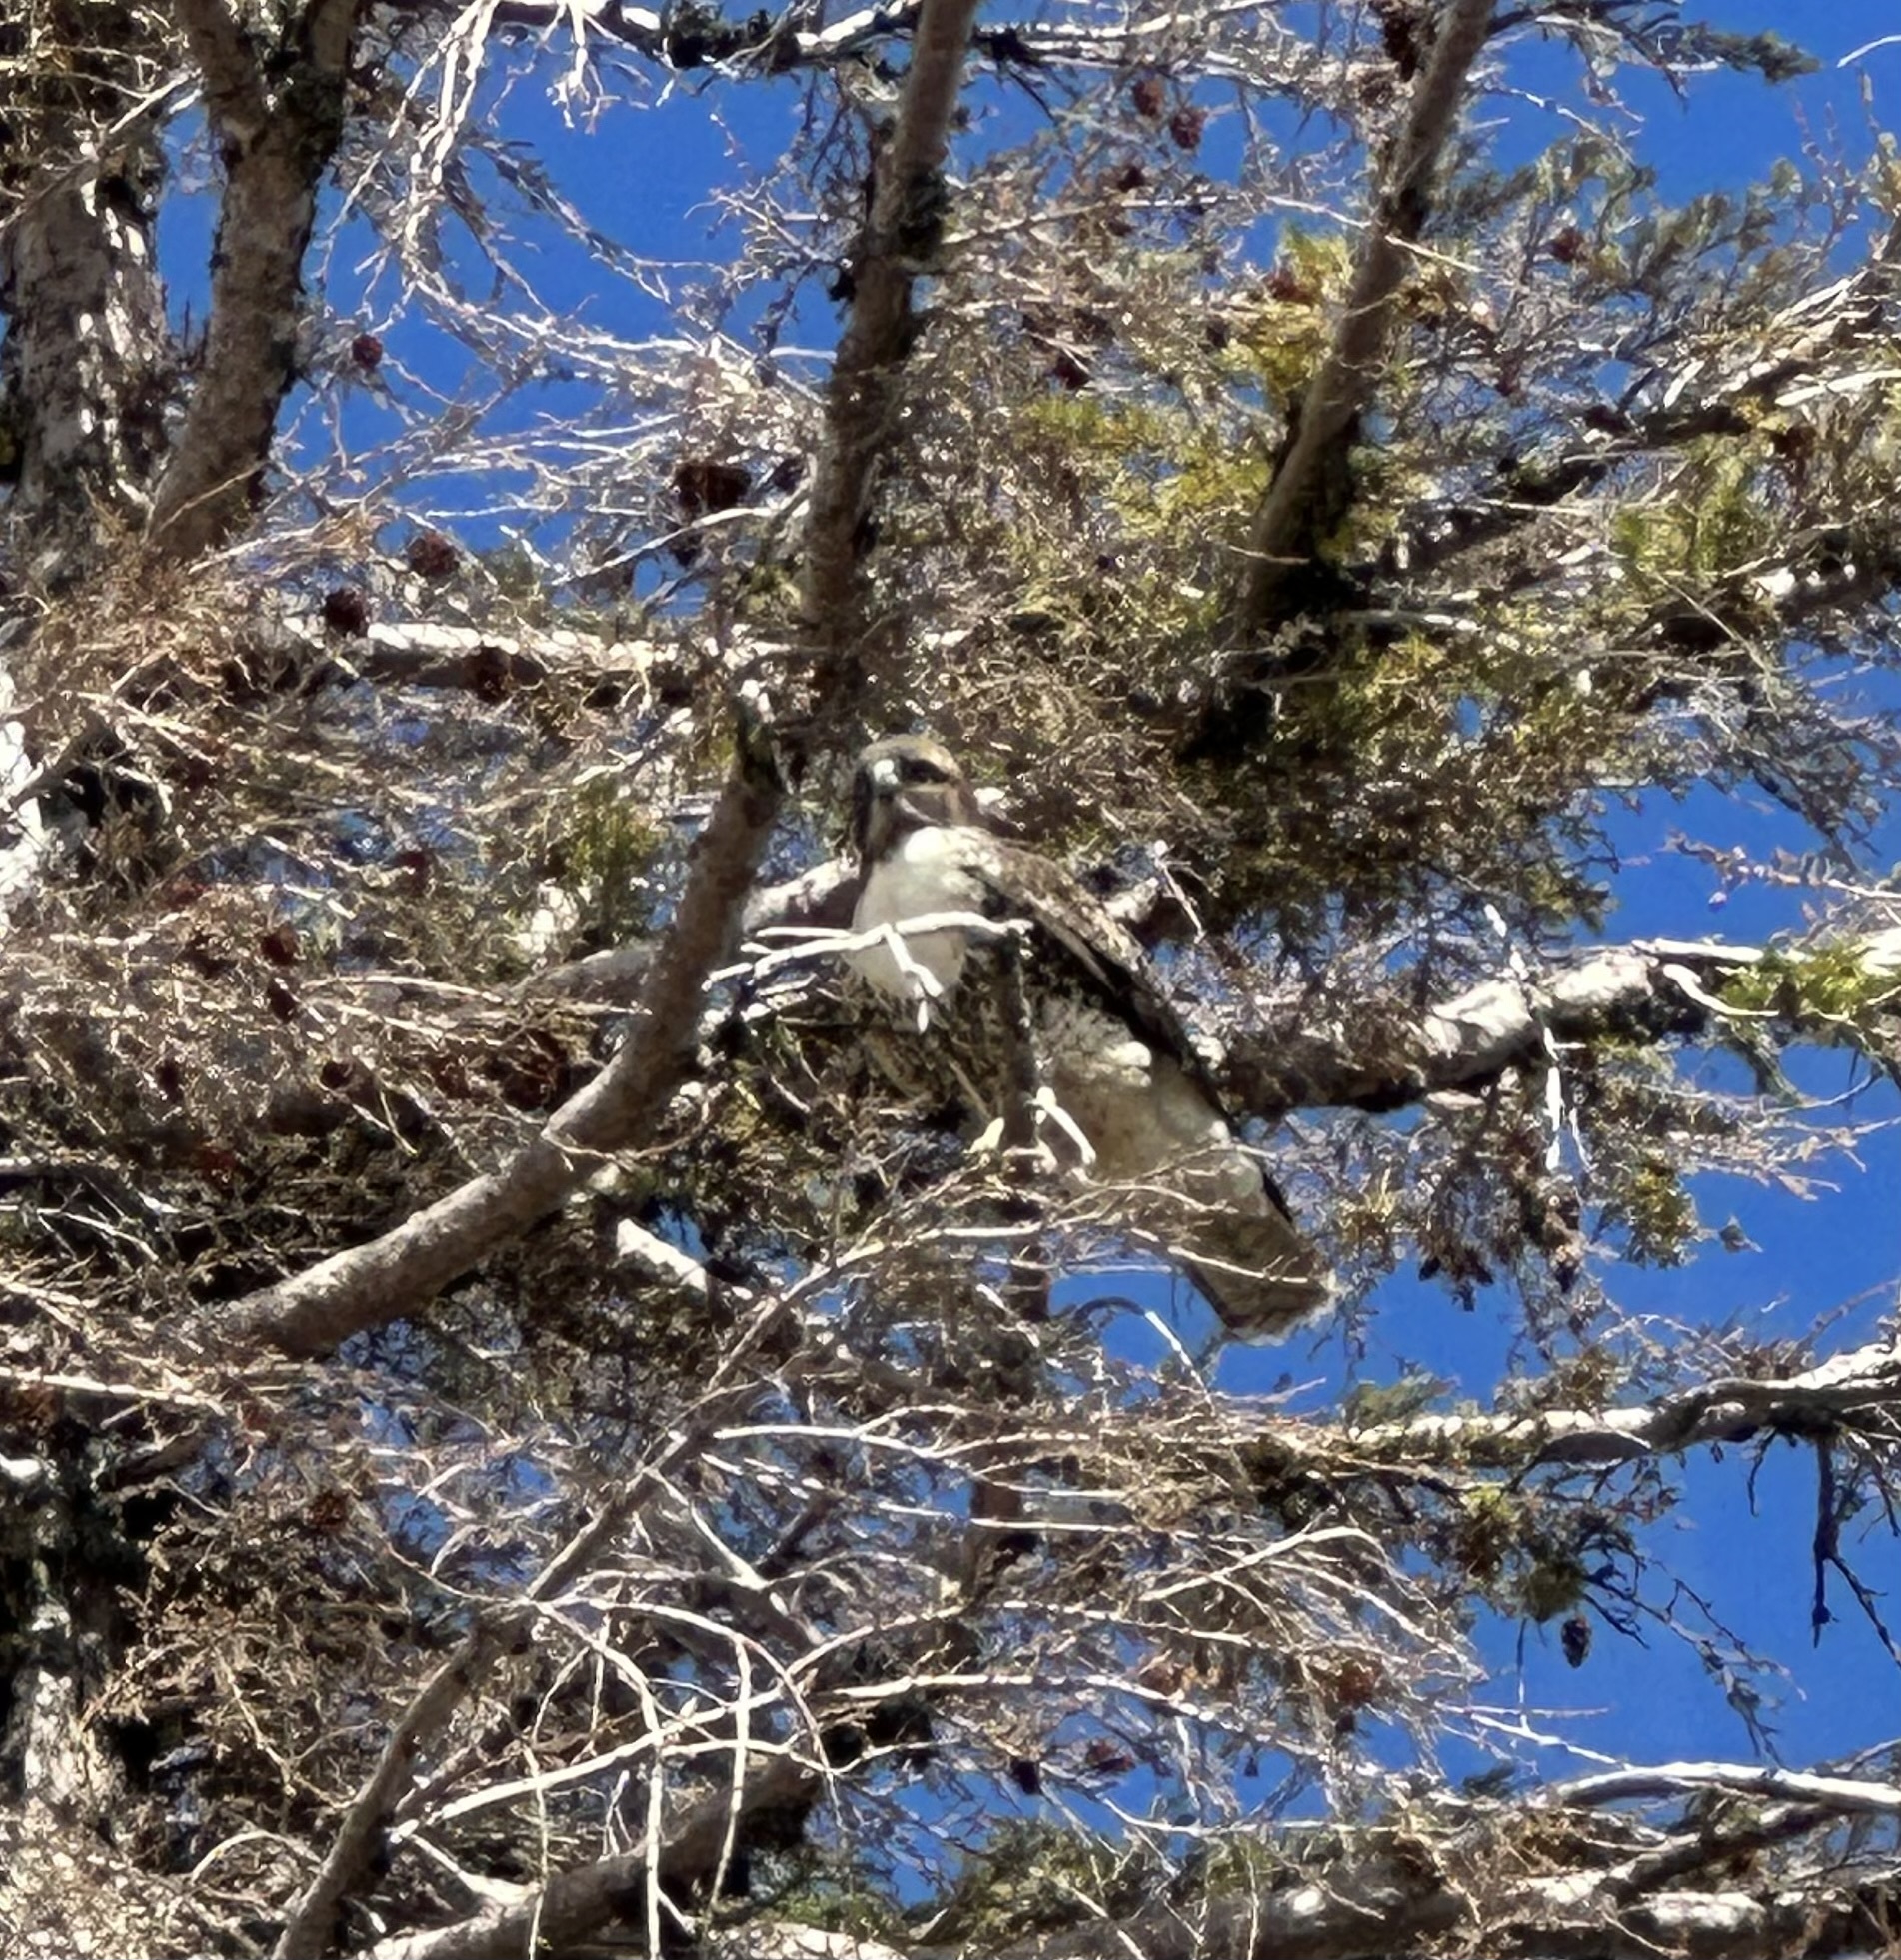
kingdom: Animalia
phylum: Chordata
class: Aves
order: Accipitriformes
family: Accipitridae
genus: Buteo
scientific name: Buteo jamaicensis
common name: Red-tailed hawk
